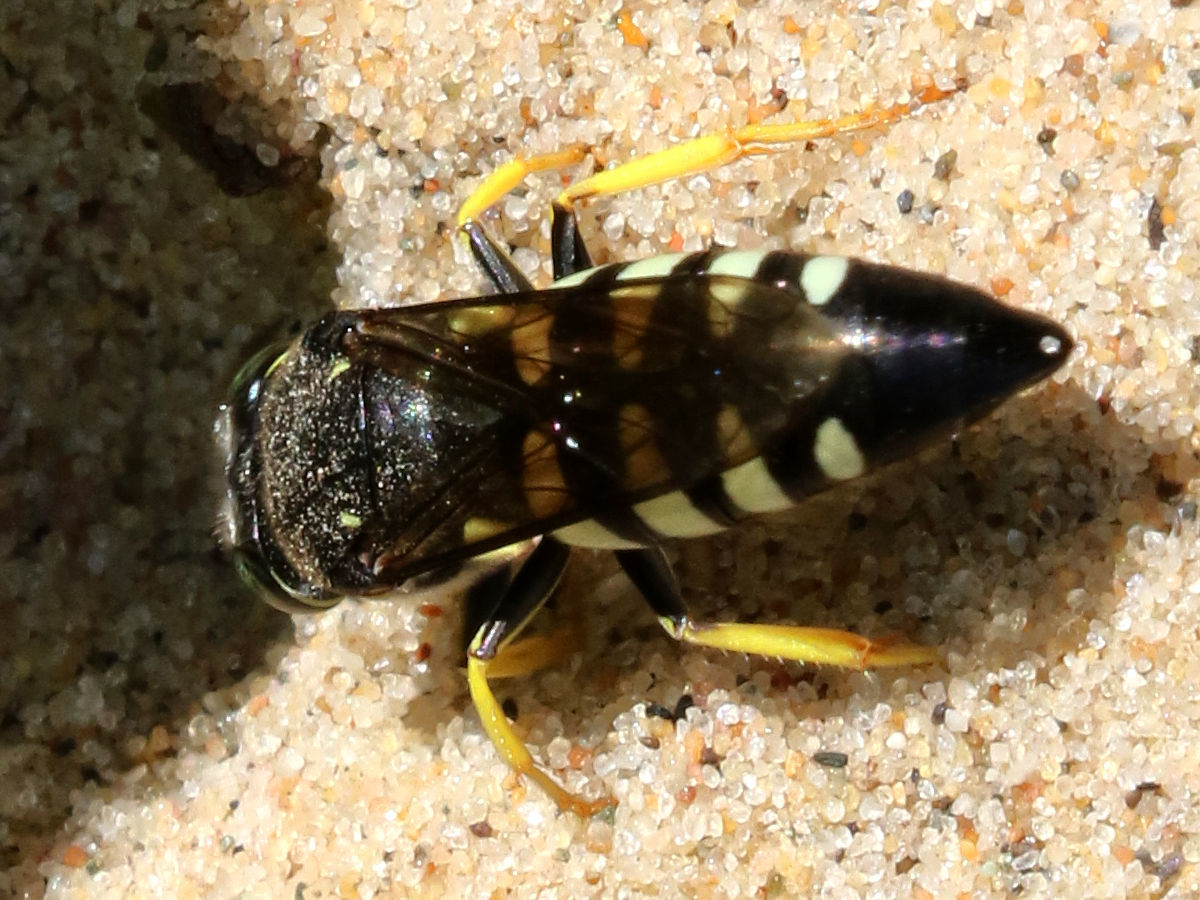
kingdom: Animalia
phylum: Arthropoda
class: Insecta
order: Hymenoptera
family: Crabronidae
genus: Bicyrtes
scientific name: Bicyrtes quadrifasciatus
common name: Four-banded stink bug hunter wasp
